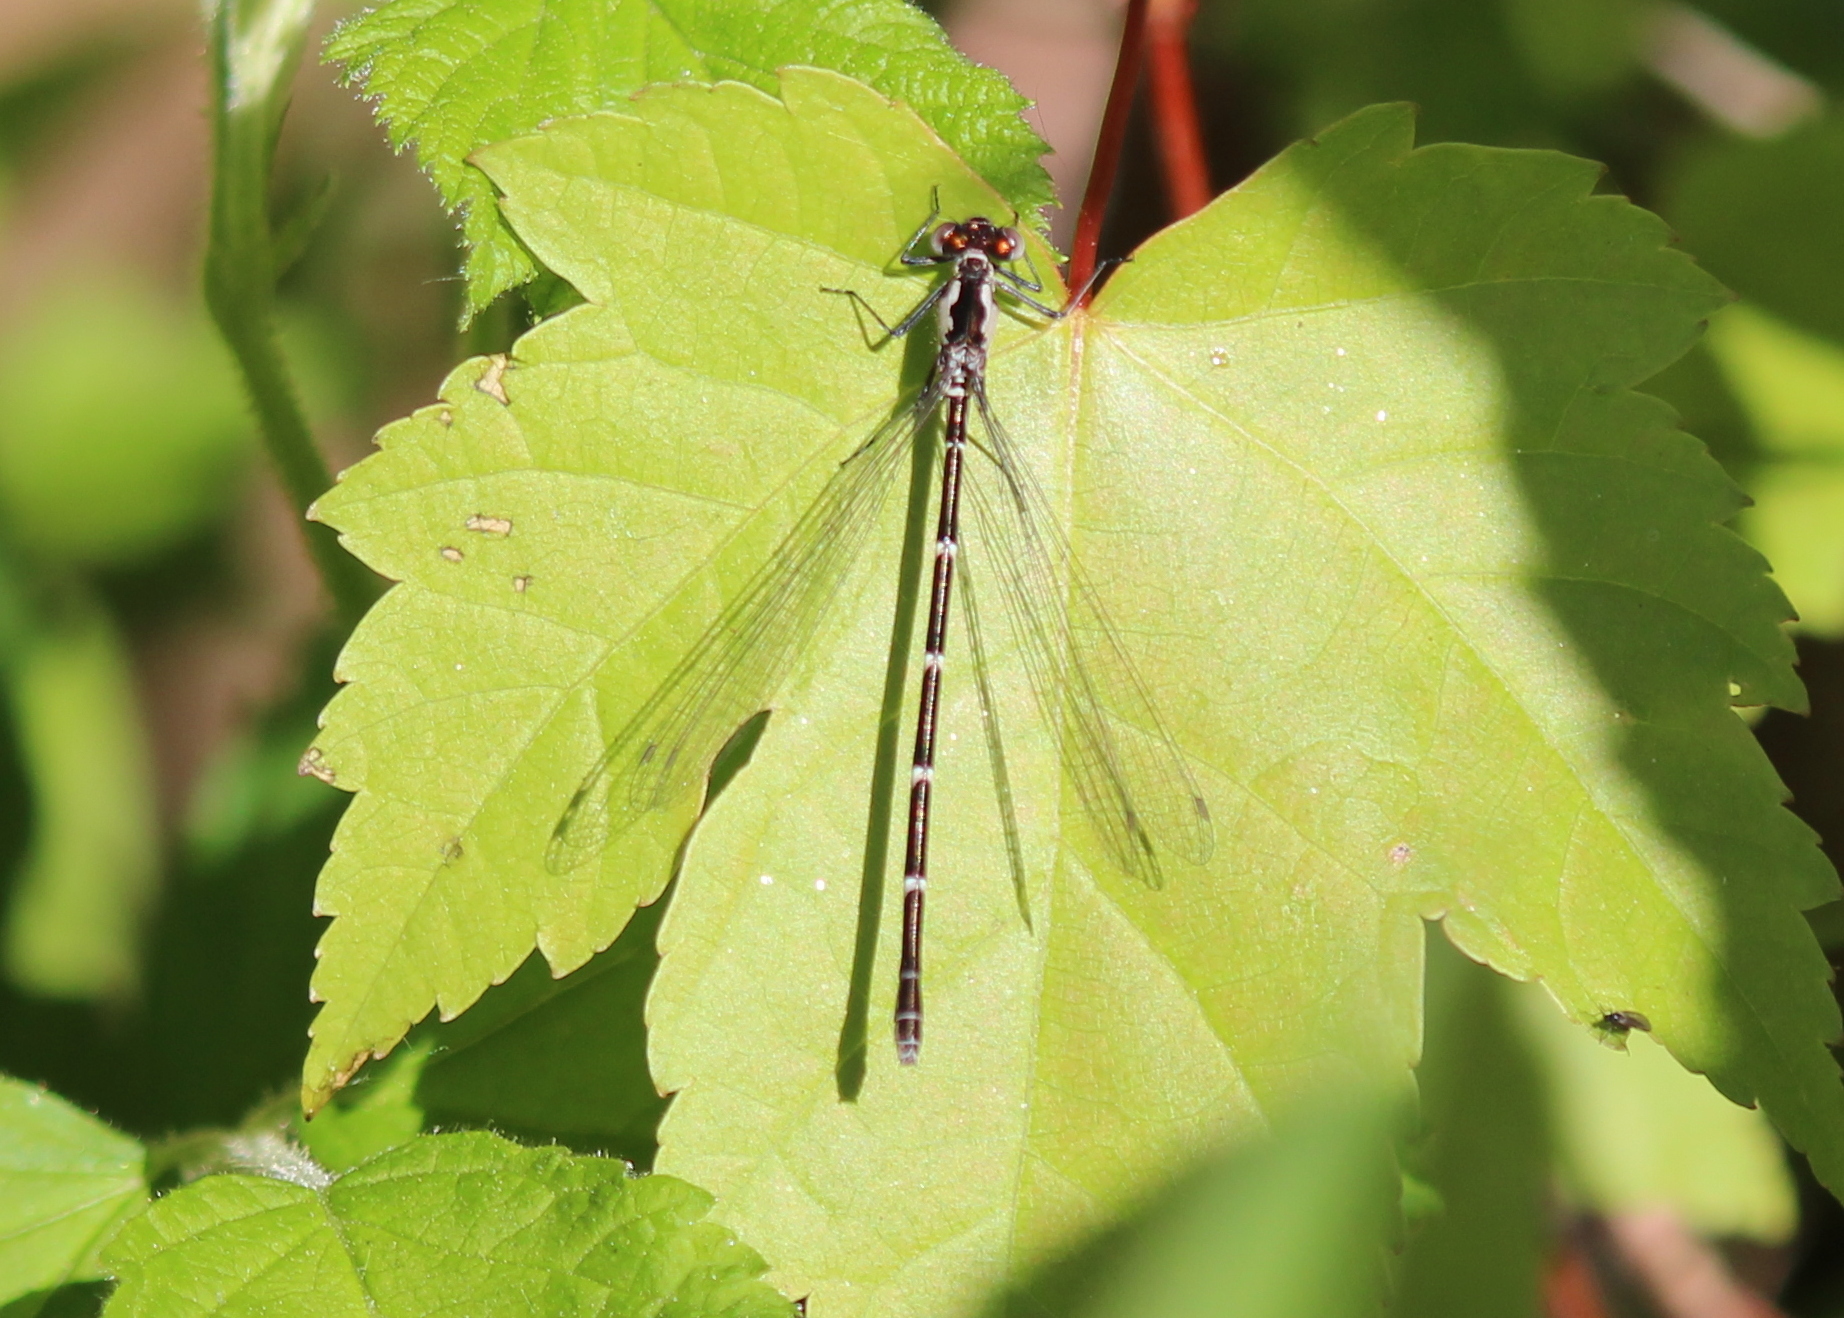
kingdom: Animalia
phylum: Arthropoda
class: Insecta
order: Odonata
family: Coenagrionidae
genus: Chromagrion
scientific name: Chromagrion conditum
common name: Aurora damsel
